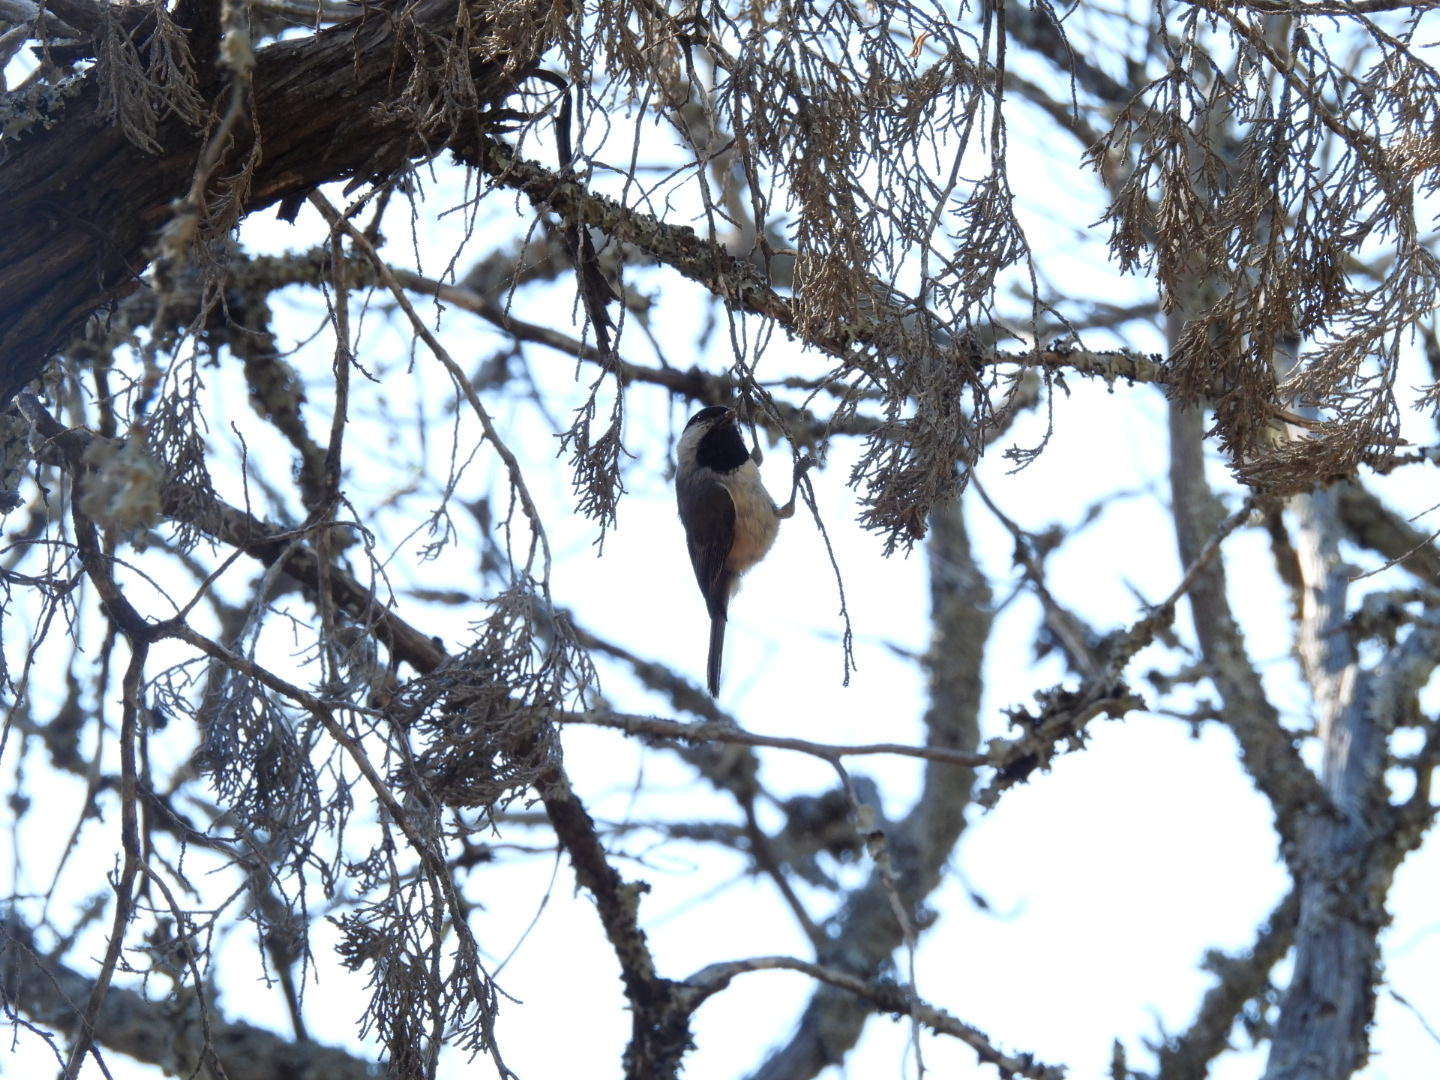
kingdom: Animalia
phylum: Chordata
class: Aves
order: Passeriformes
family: Paridae
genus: Poecile
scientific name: Poecile carolinensis
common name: Carolina chickadee
